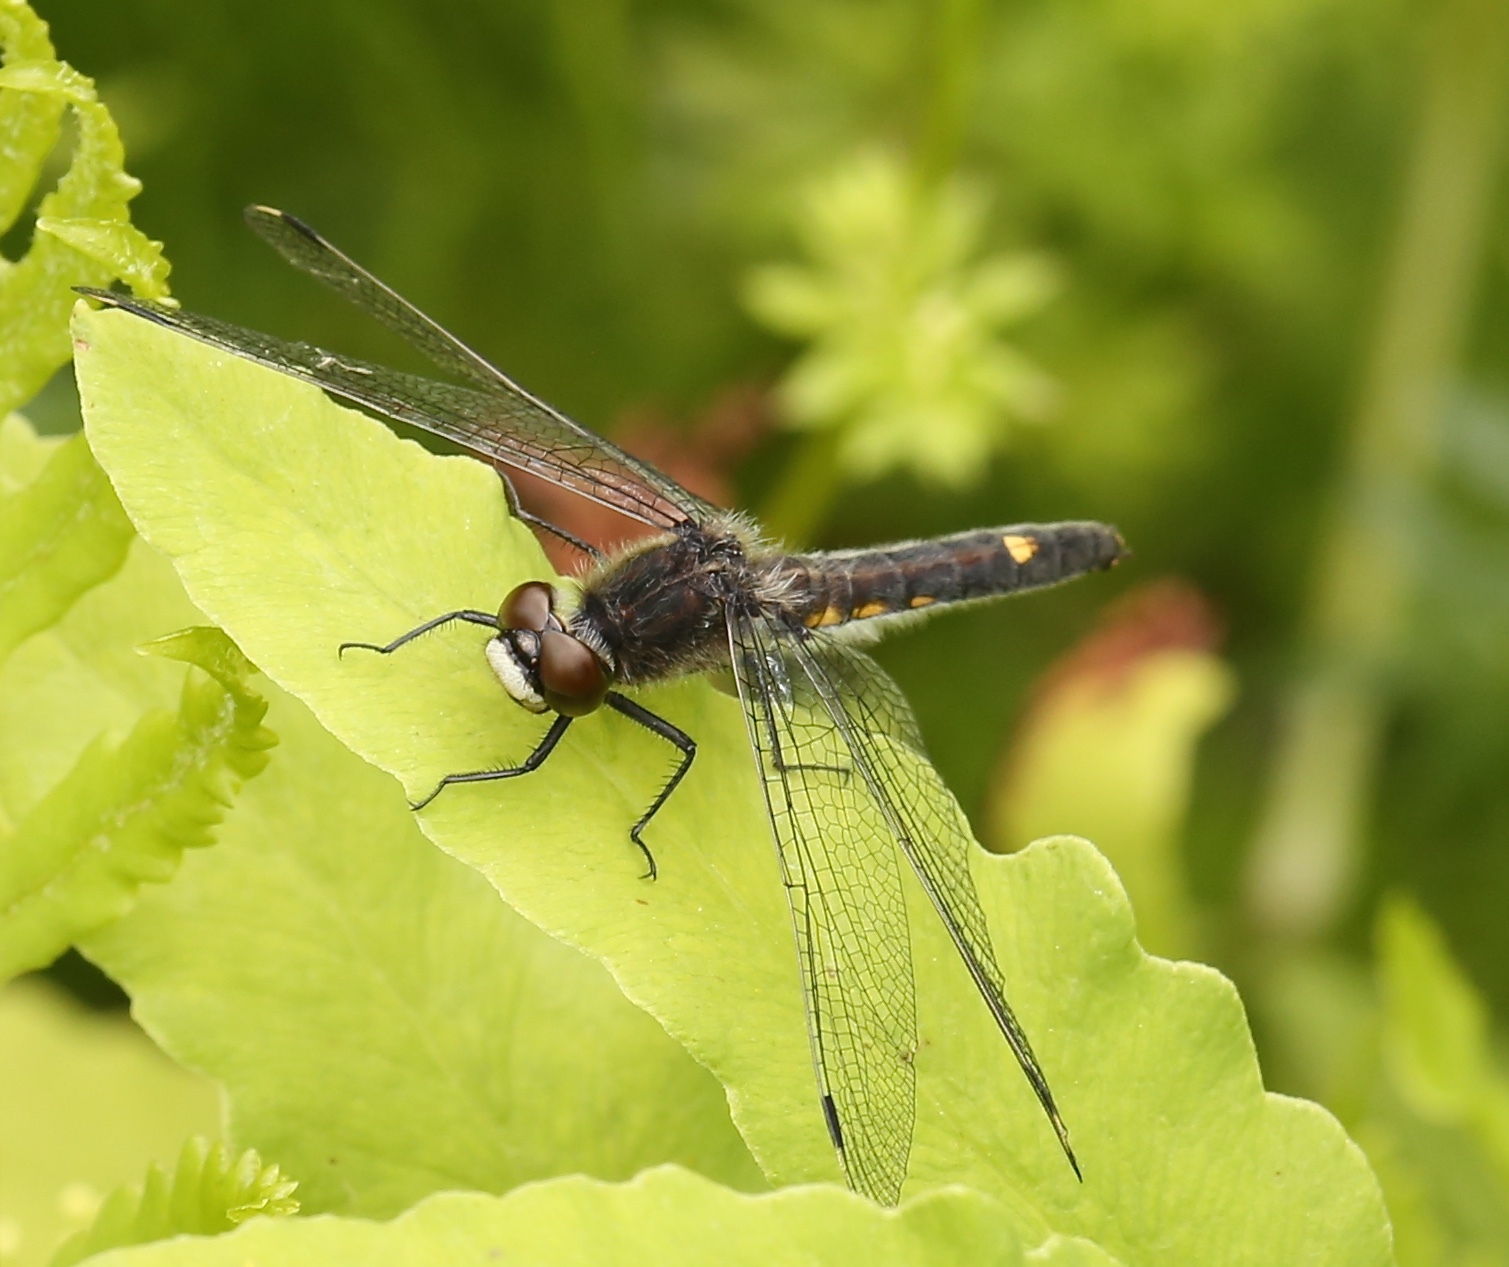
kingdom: Animalia
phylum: Arthropoda
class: Insecta
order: Odonata
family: Libellulidae
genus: Leucorrhinia
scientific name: Leucorrhinia intacta
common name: Dot-tailed whiteface
